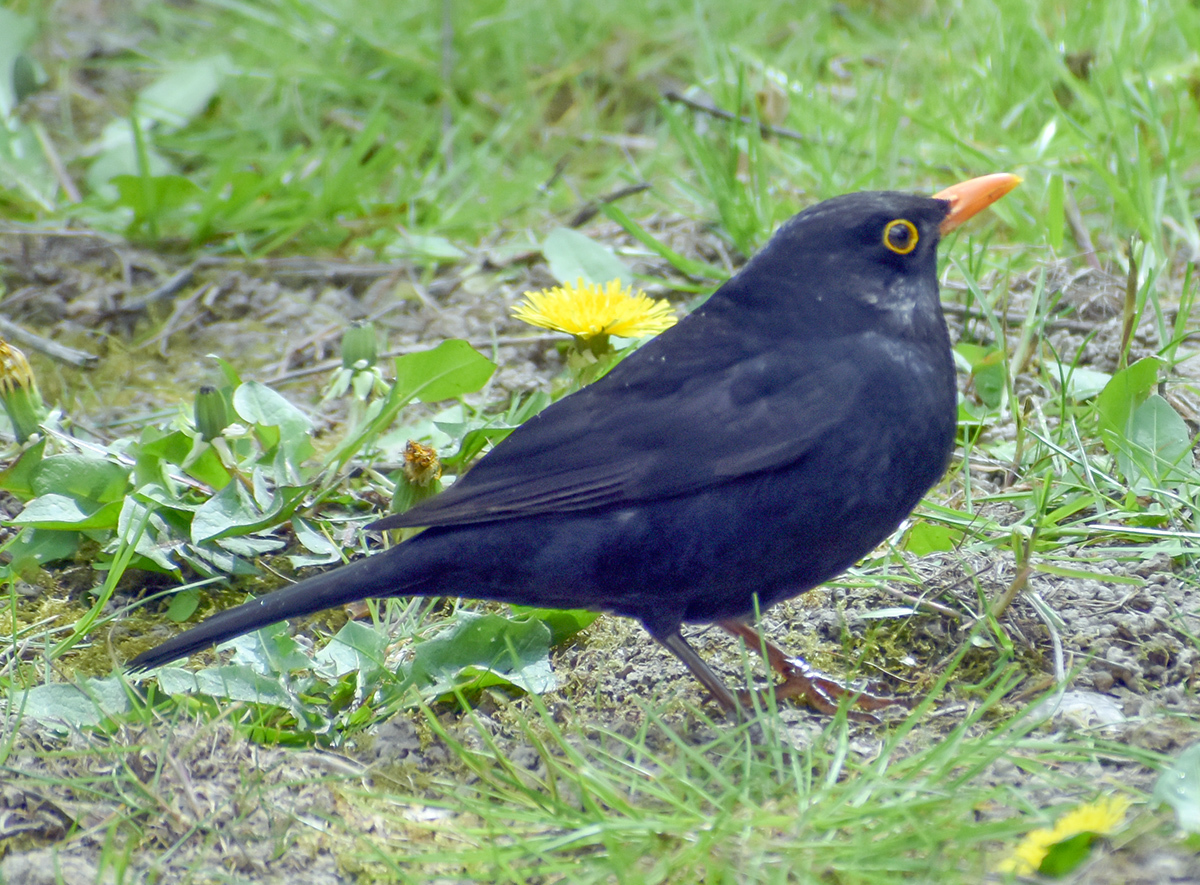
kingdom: Animalia
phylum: Chordata
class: Aves
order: Passeriformes
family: Turdidae
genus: Turdus
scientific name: Turdus merula
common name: Common blackbird
